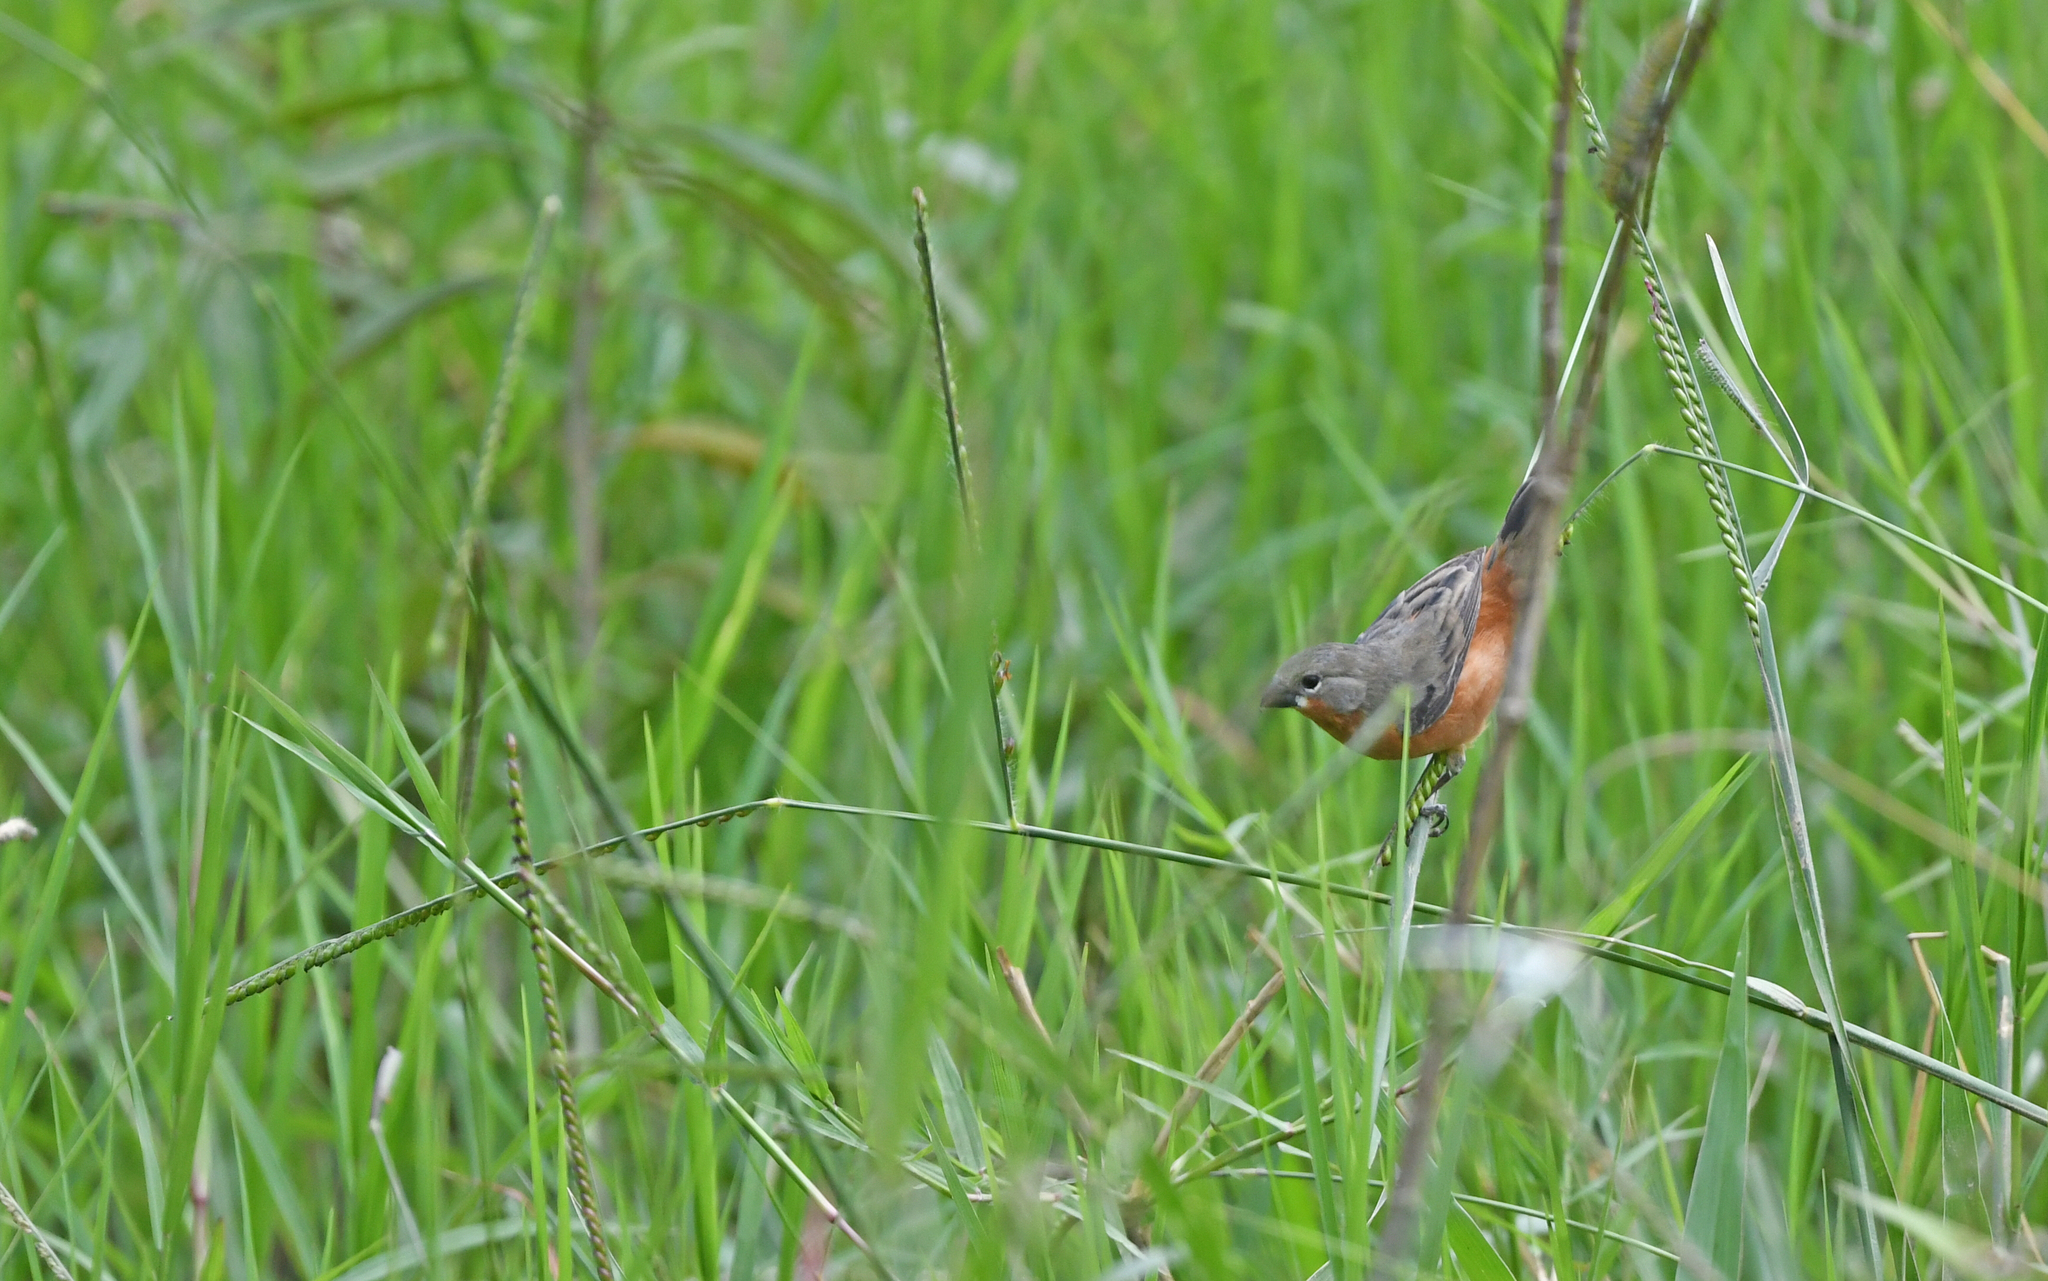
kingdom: Animalia
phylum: Chordata
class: Aves
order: Passeriformes
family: Thraupidae
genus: Sporophila
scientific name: Sporophila minuta
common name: Ruddy-breasted seedeater
